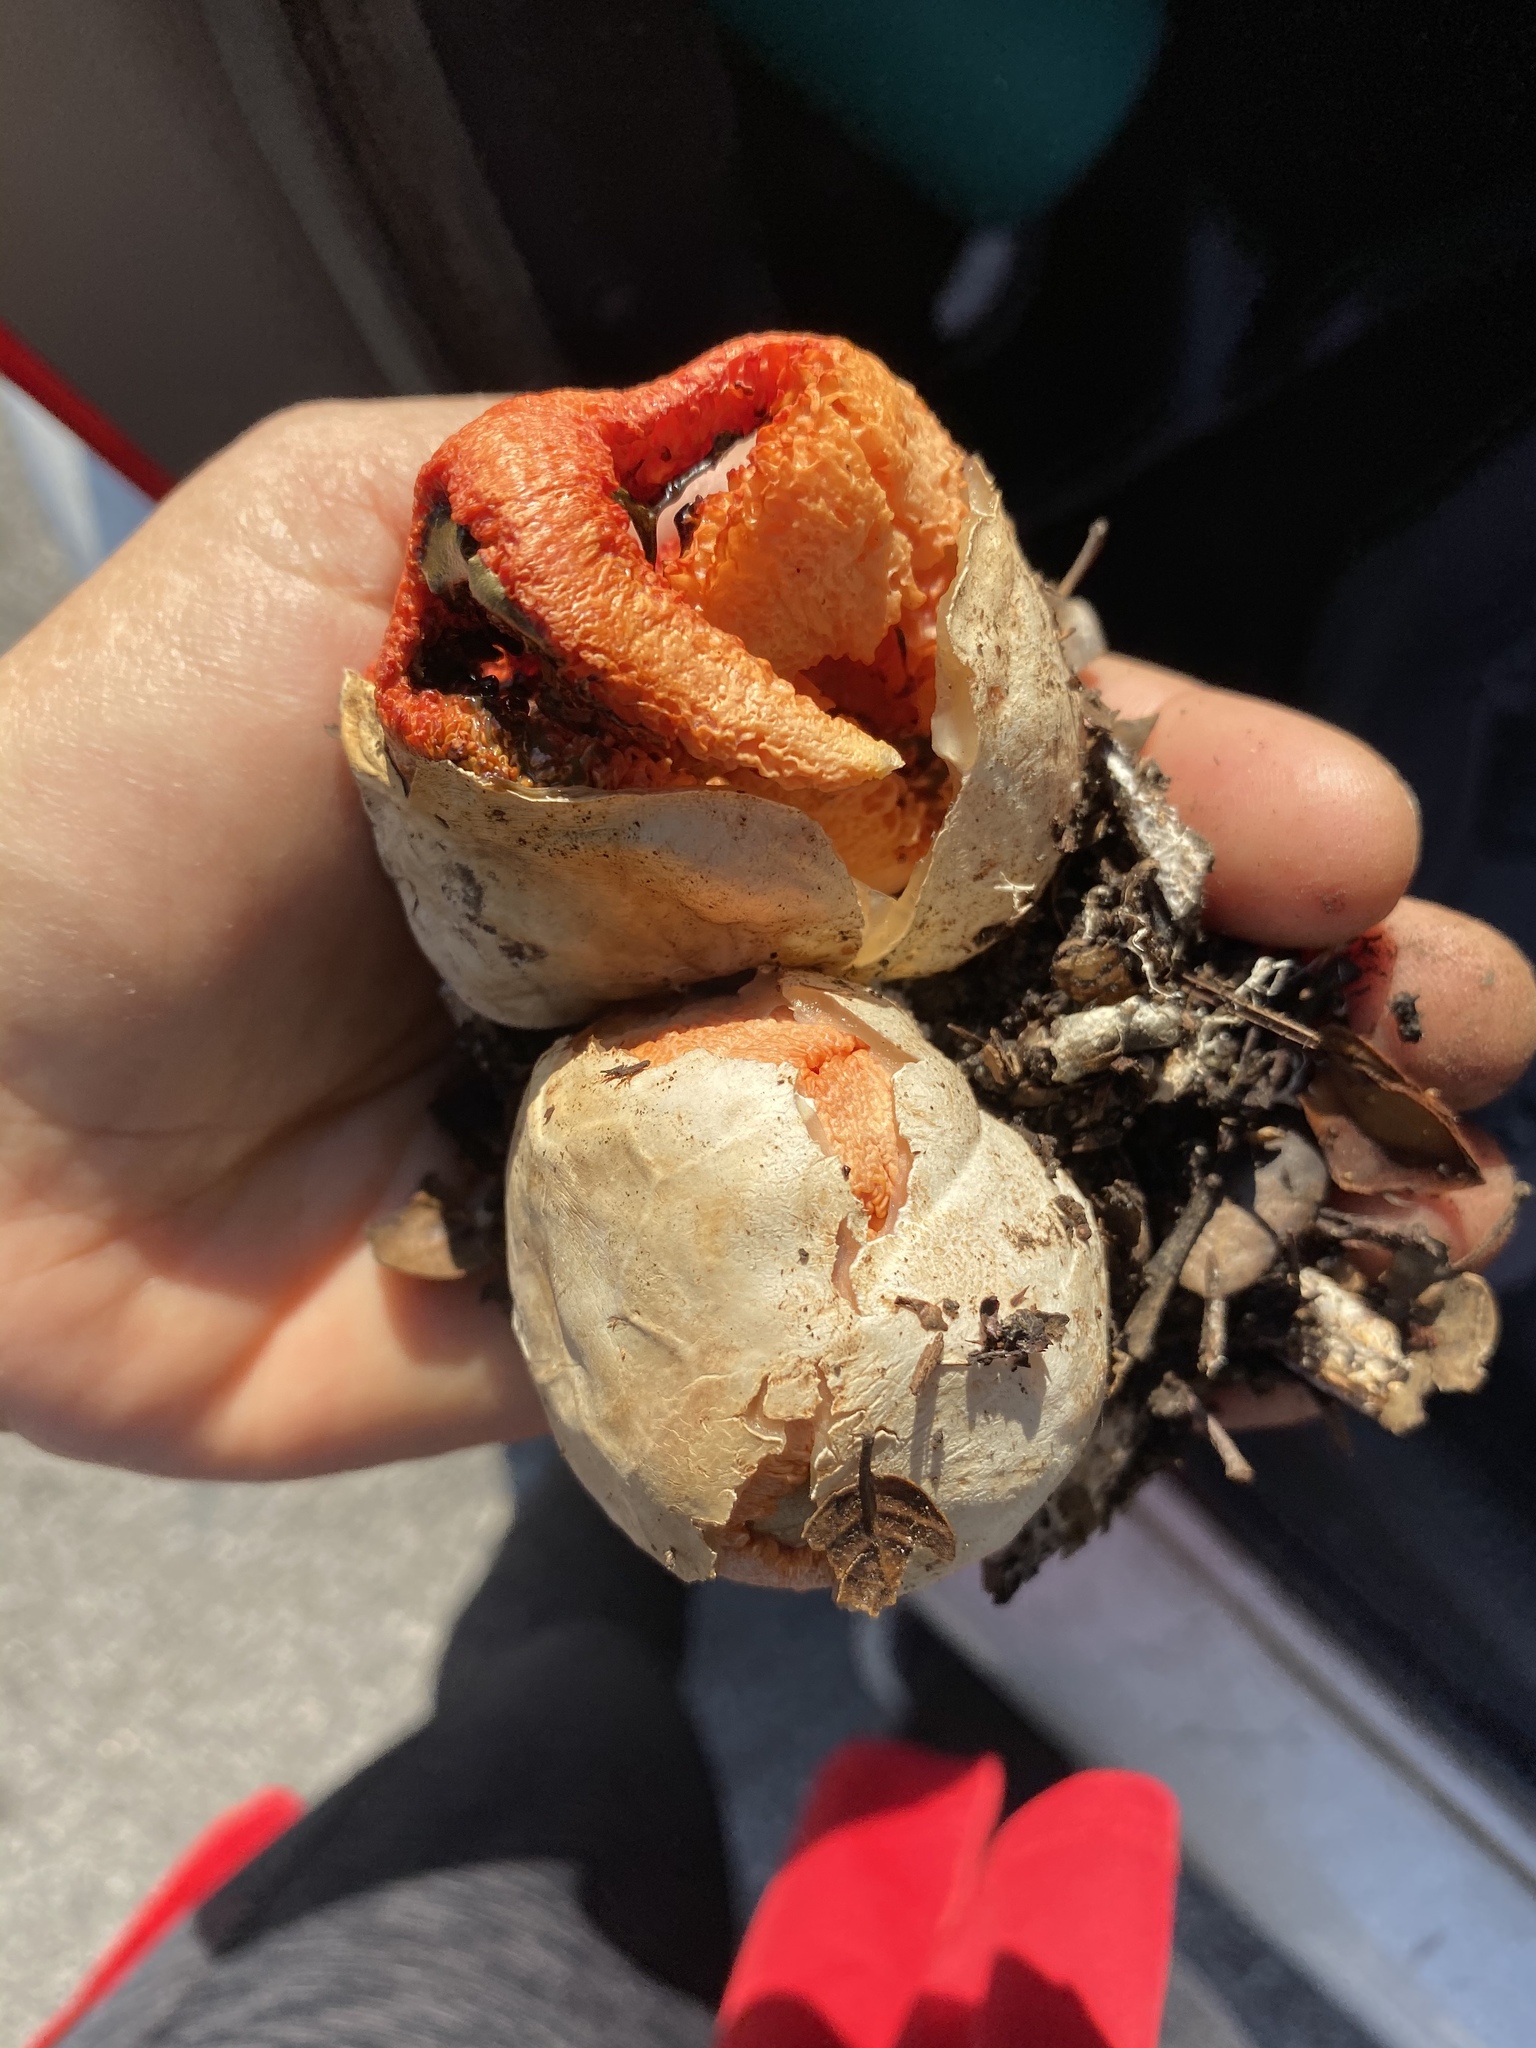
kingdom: Fungi
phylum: Basidiomycota
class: Agaricomycetes
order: Phallales
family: Phallaceae
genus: Clathrus
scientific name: Clathrus ruber
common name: Red cage
